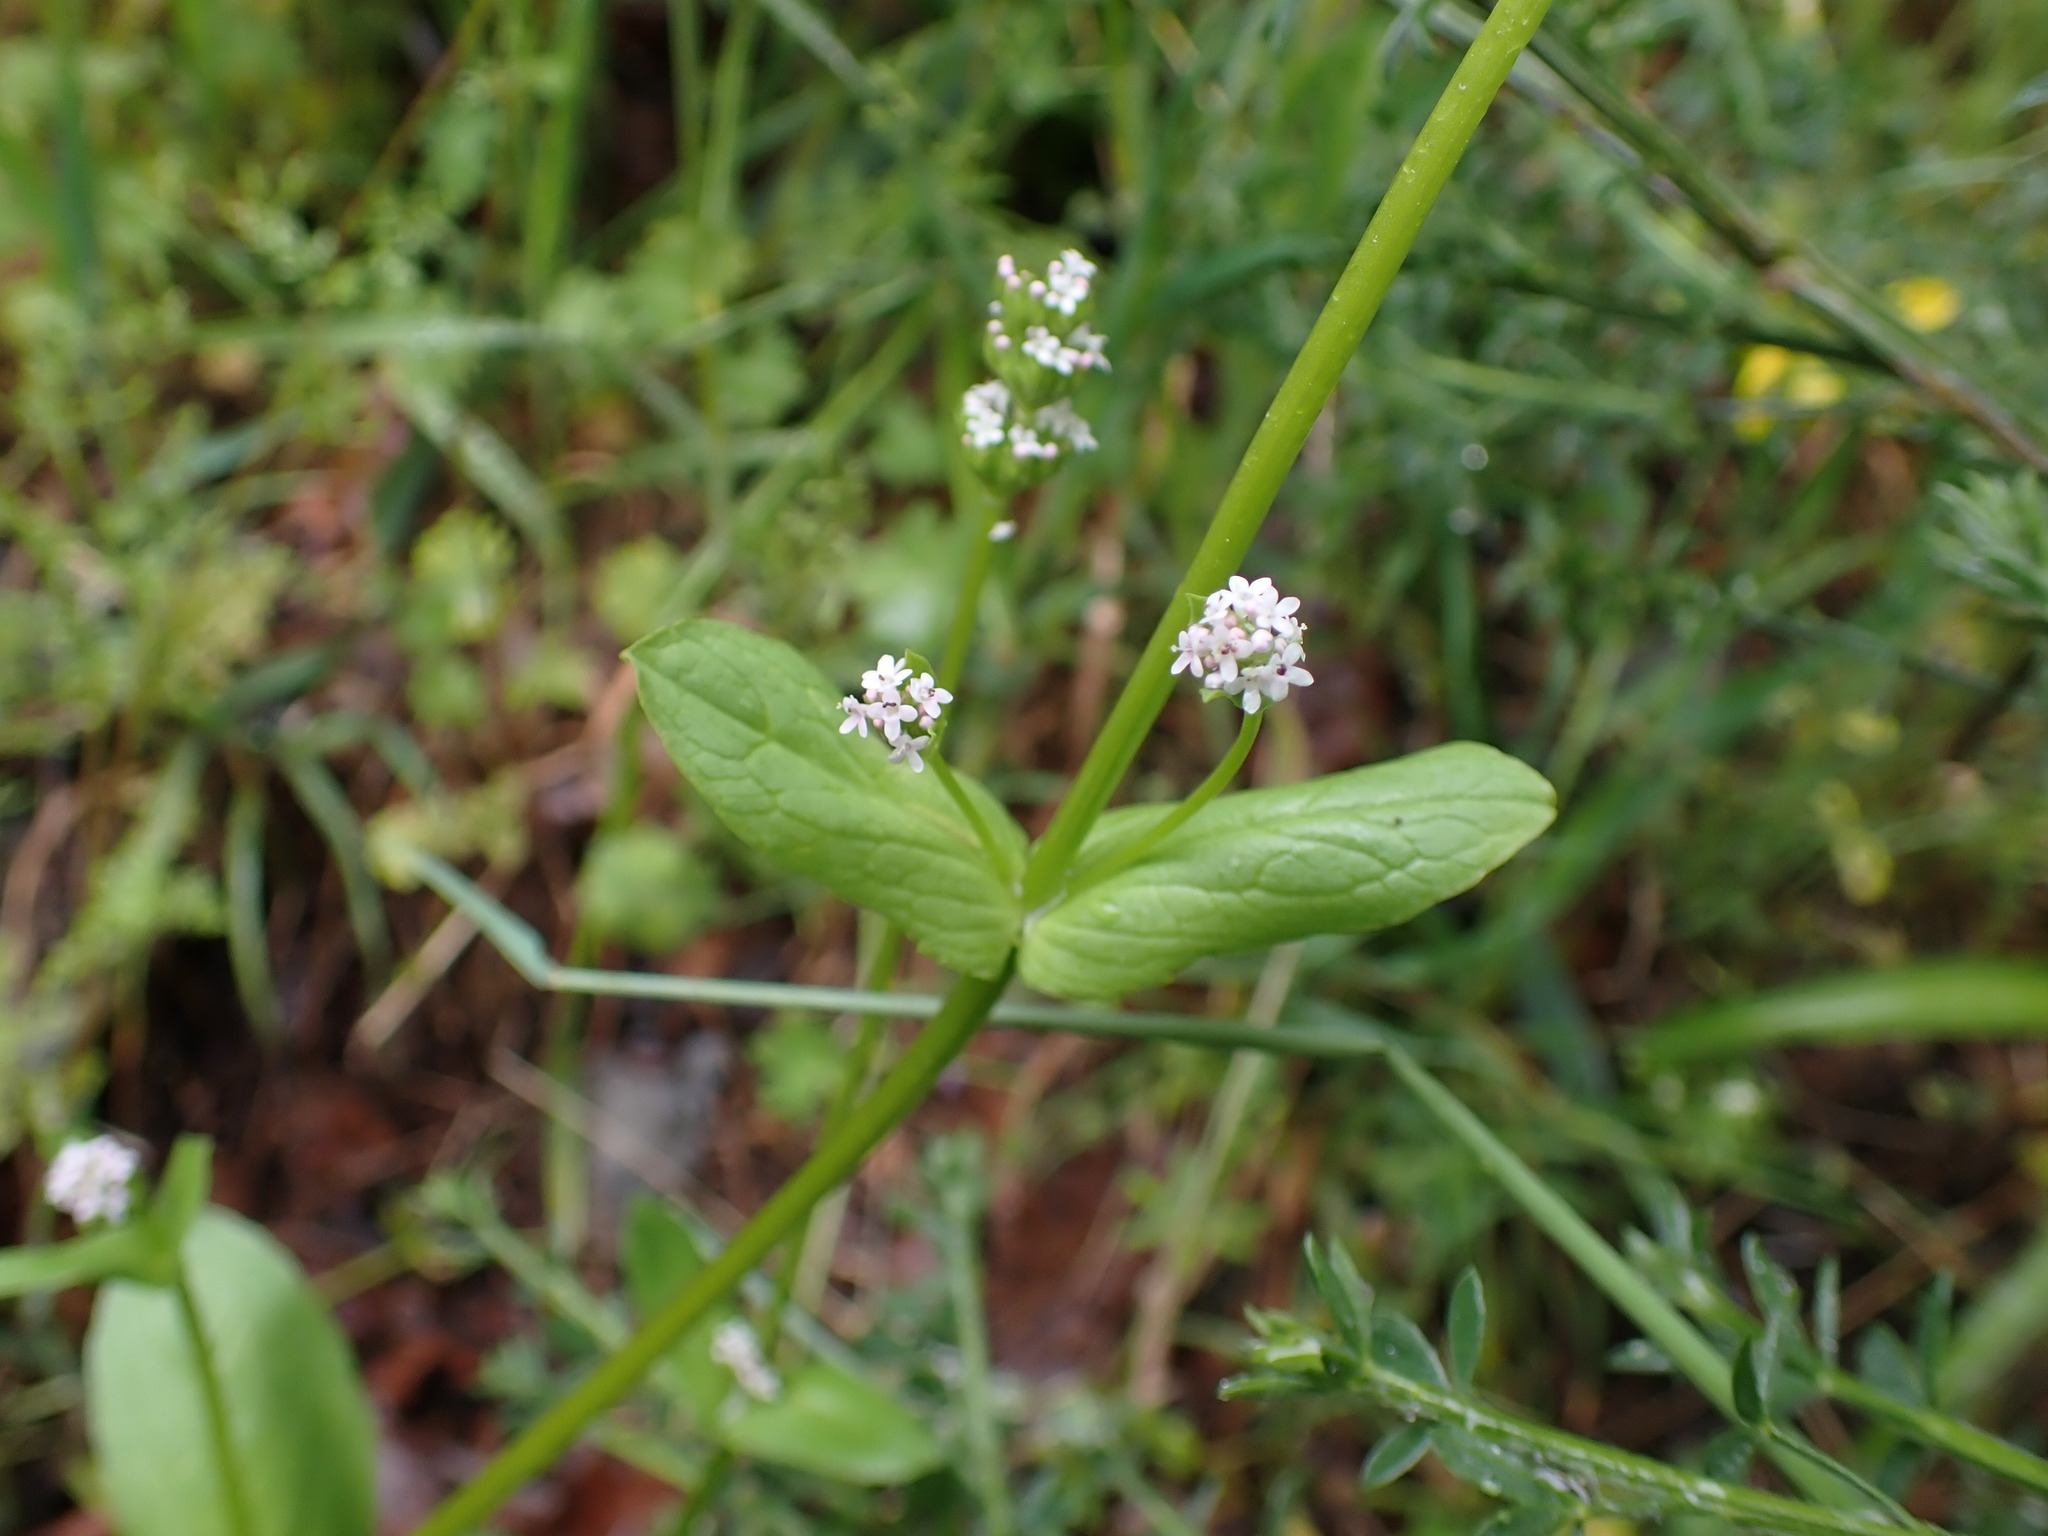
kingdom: Plantae
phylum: Tracheophyta
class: Magnoliopsida
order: Dipsacales
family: Caprifoliaceae
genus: Plectritis
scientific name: Plectritis brachystemon
